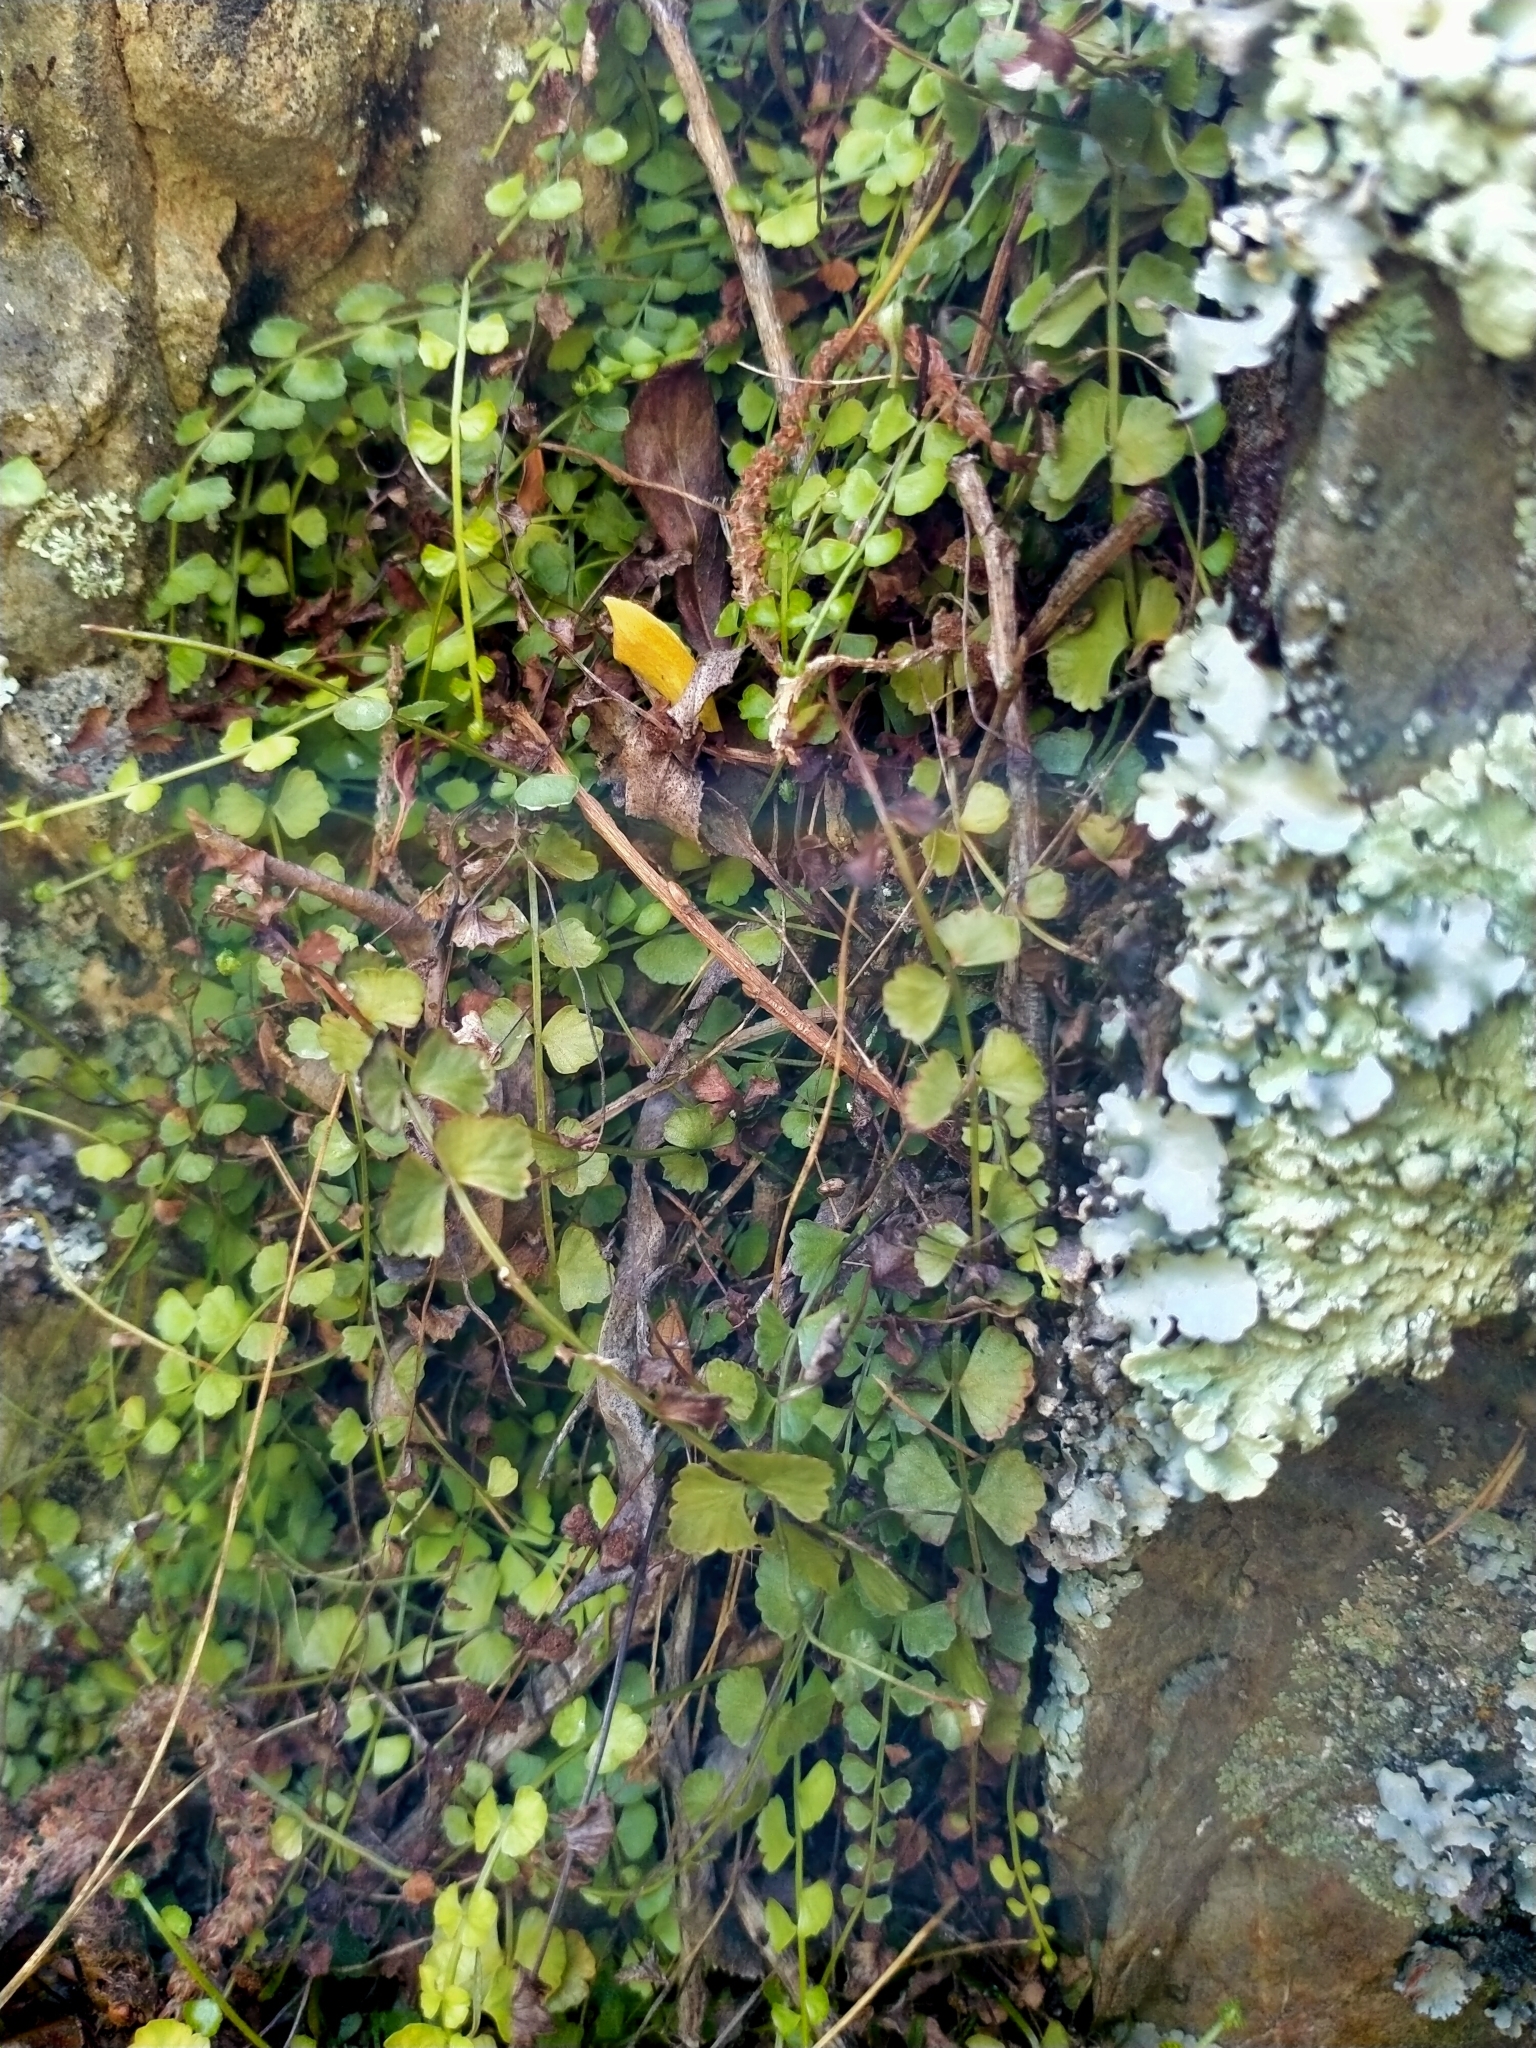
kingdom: Plantae
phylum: Tracheophyta
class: Polypodiopsida
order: Polypodiales
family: Aspleniaceae
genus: Asplenium
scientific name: Asplenium flabellifolium
